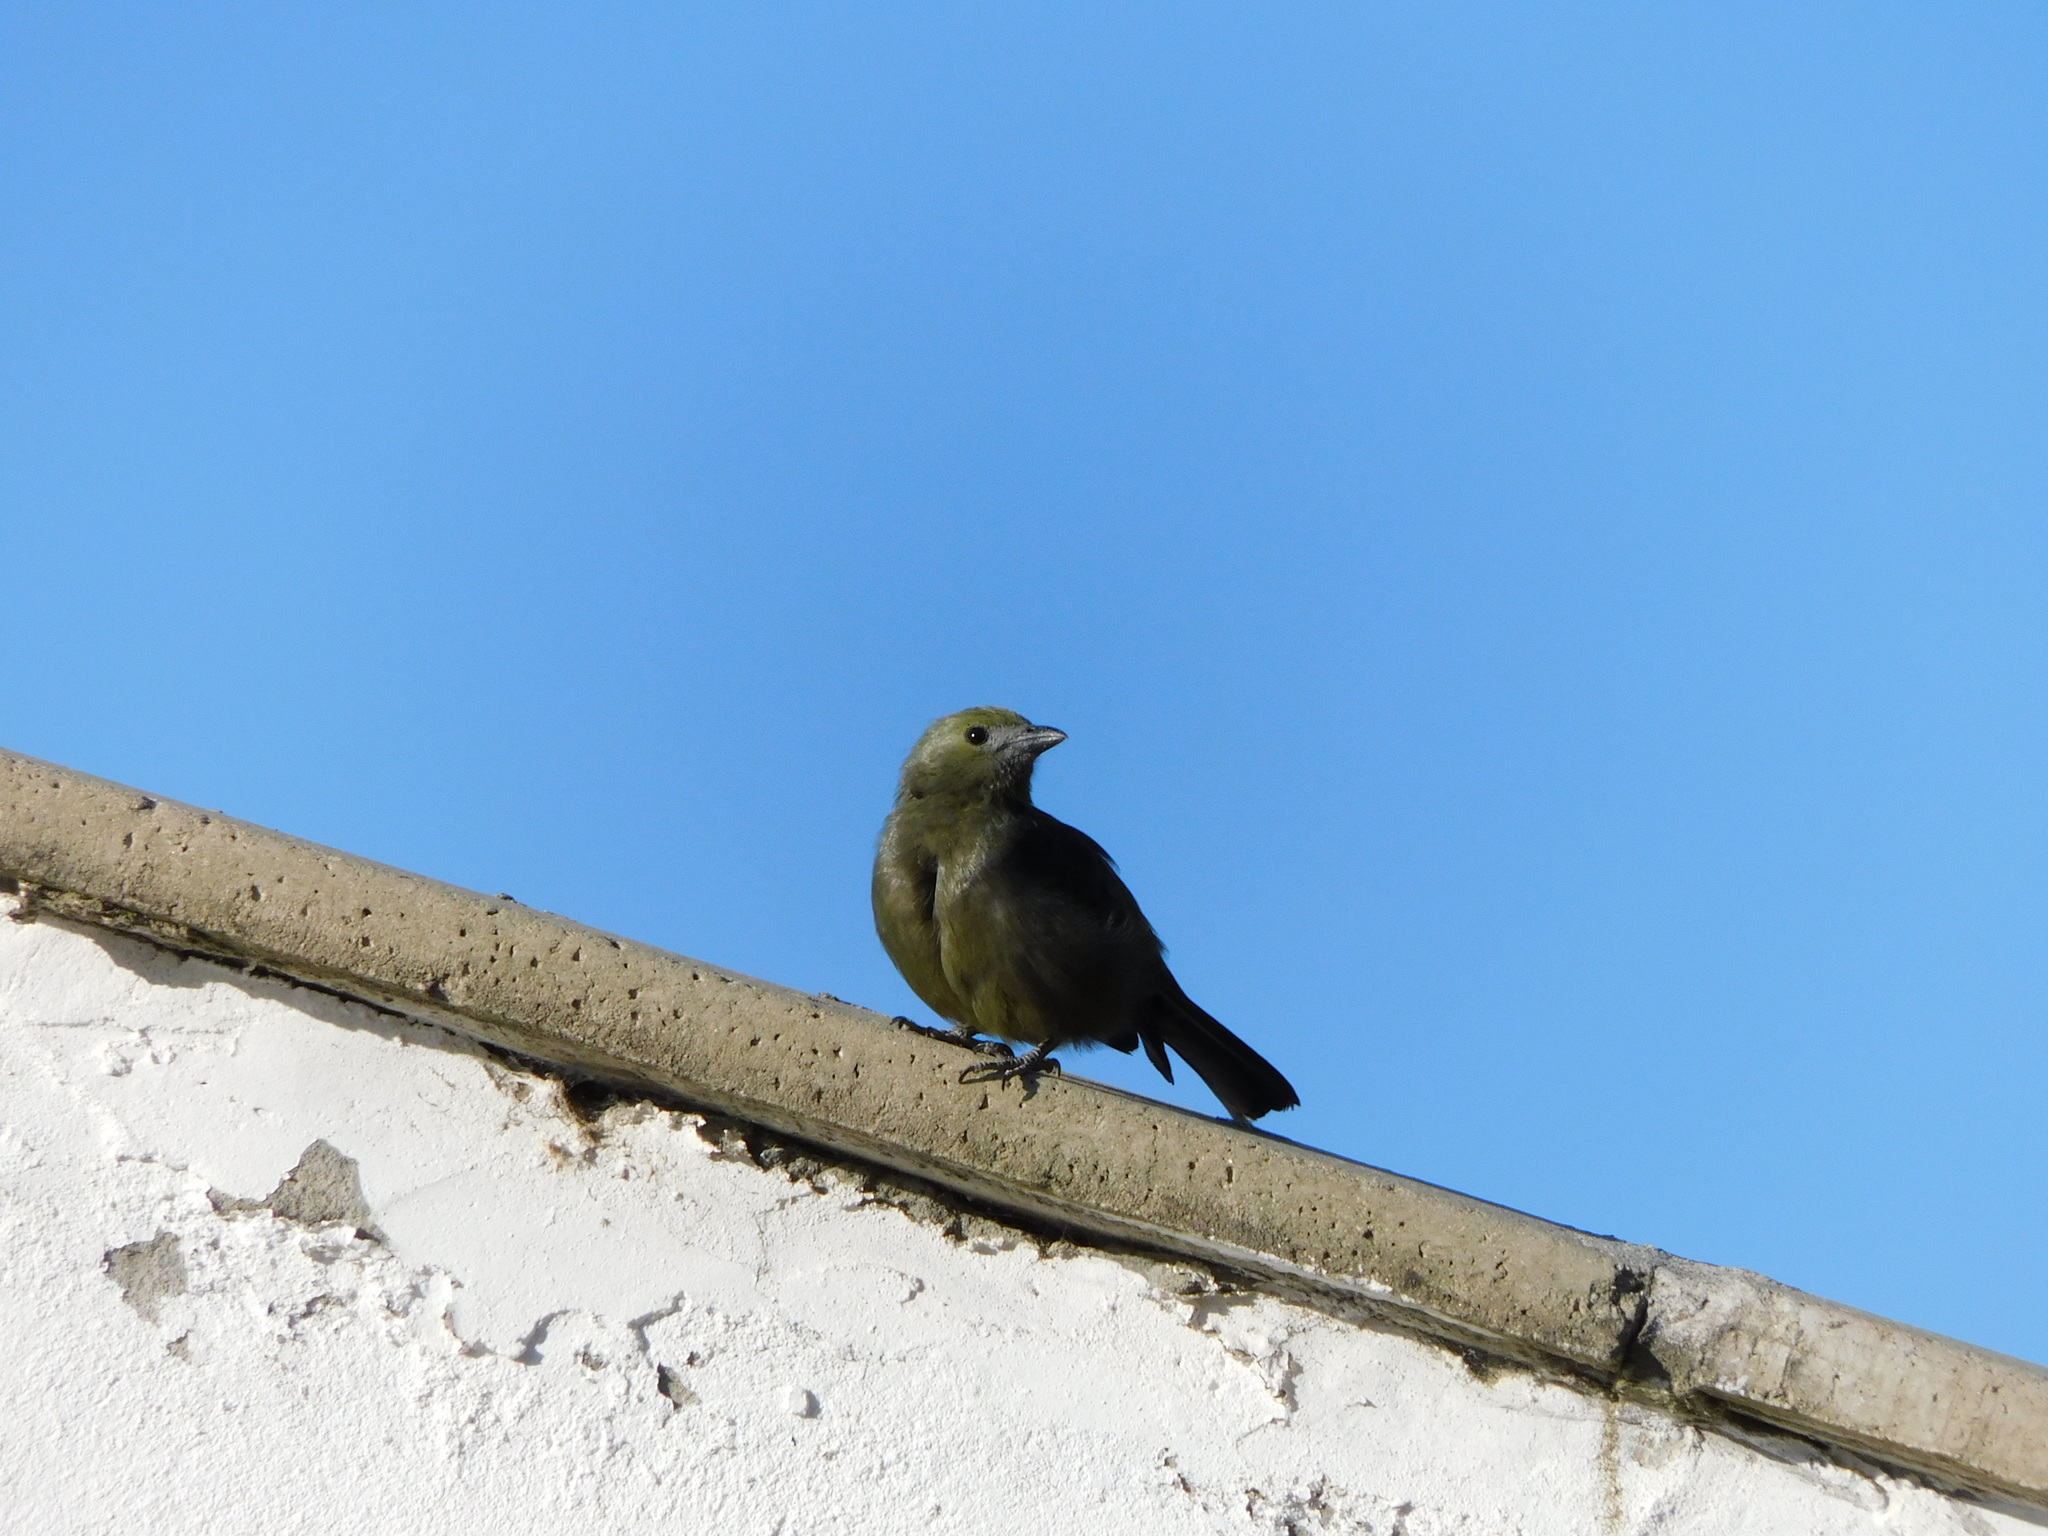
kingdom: Animalia
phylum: Chordata
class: Aves
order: Passeriformes
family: Thraupidae
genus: Thraupis
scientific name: Thraupis palmarum
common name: Palm tanager
